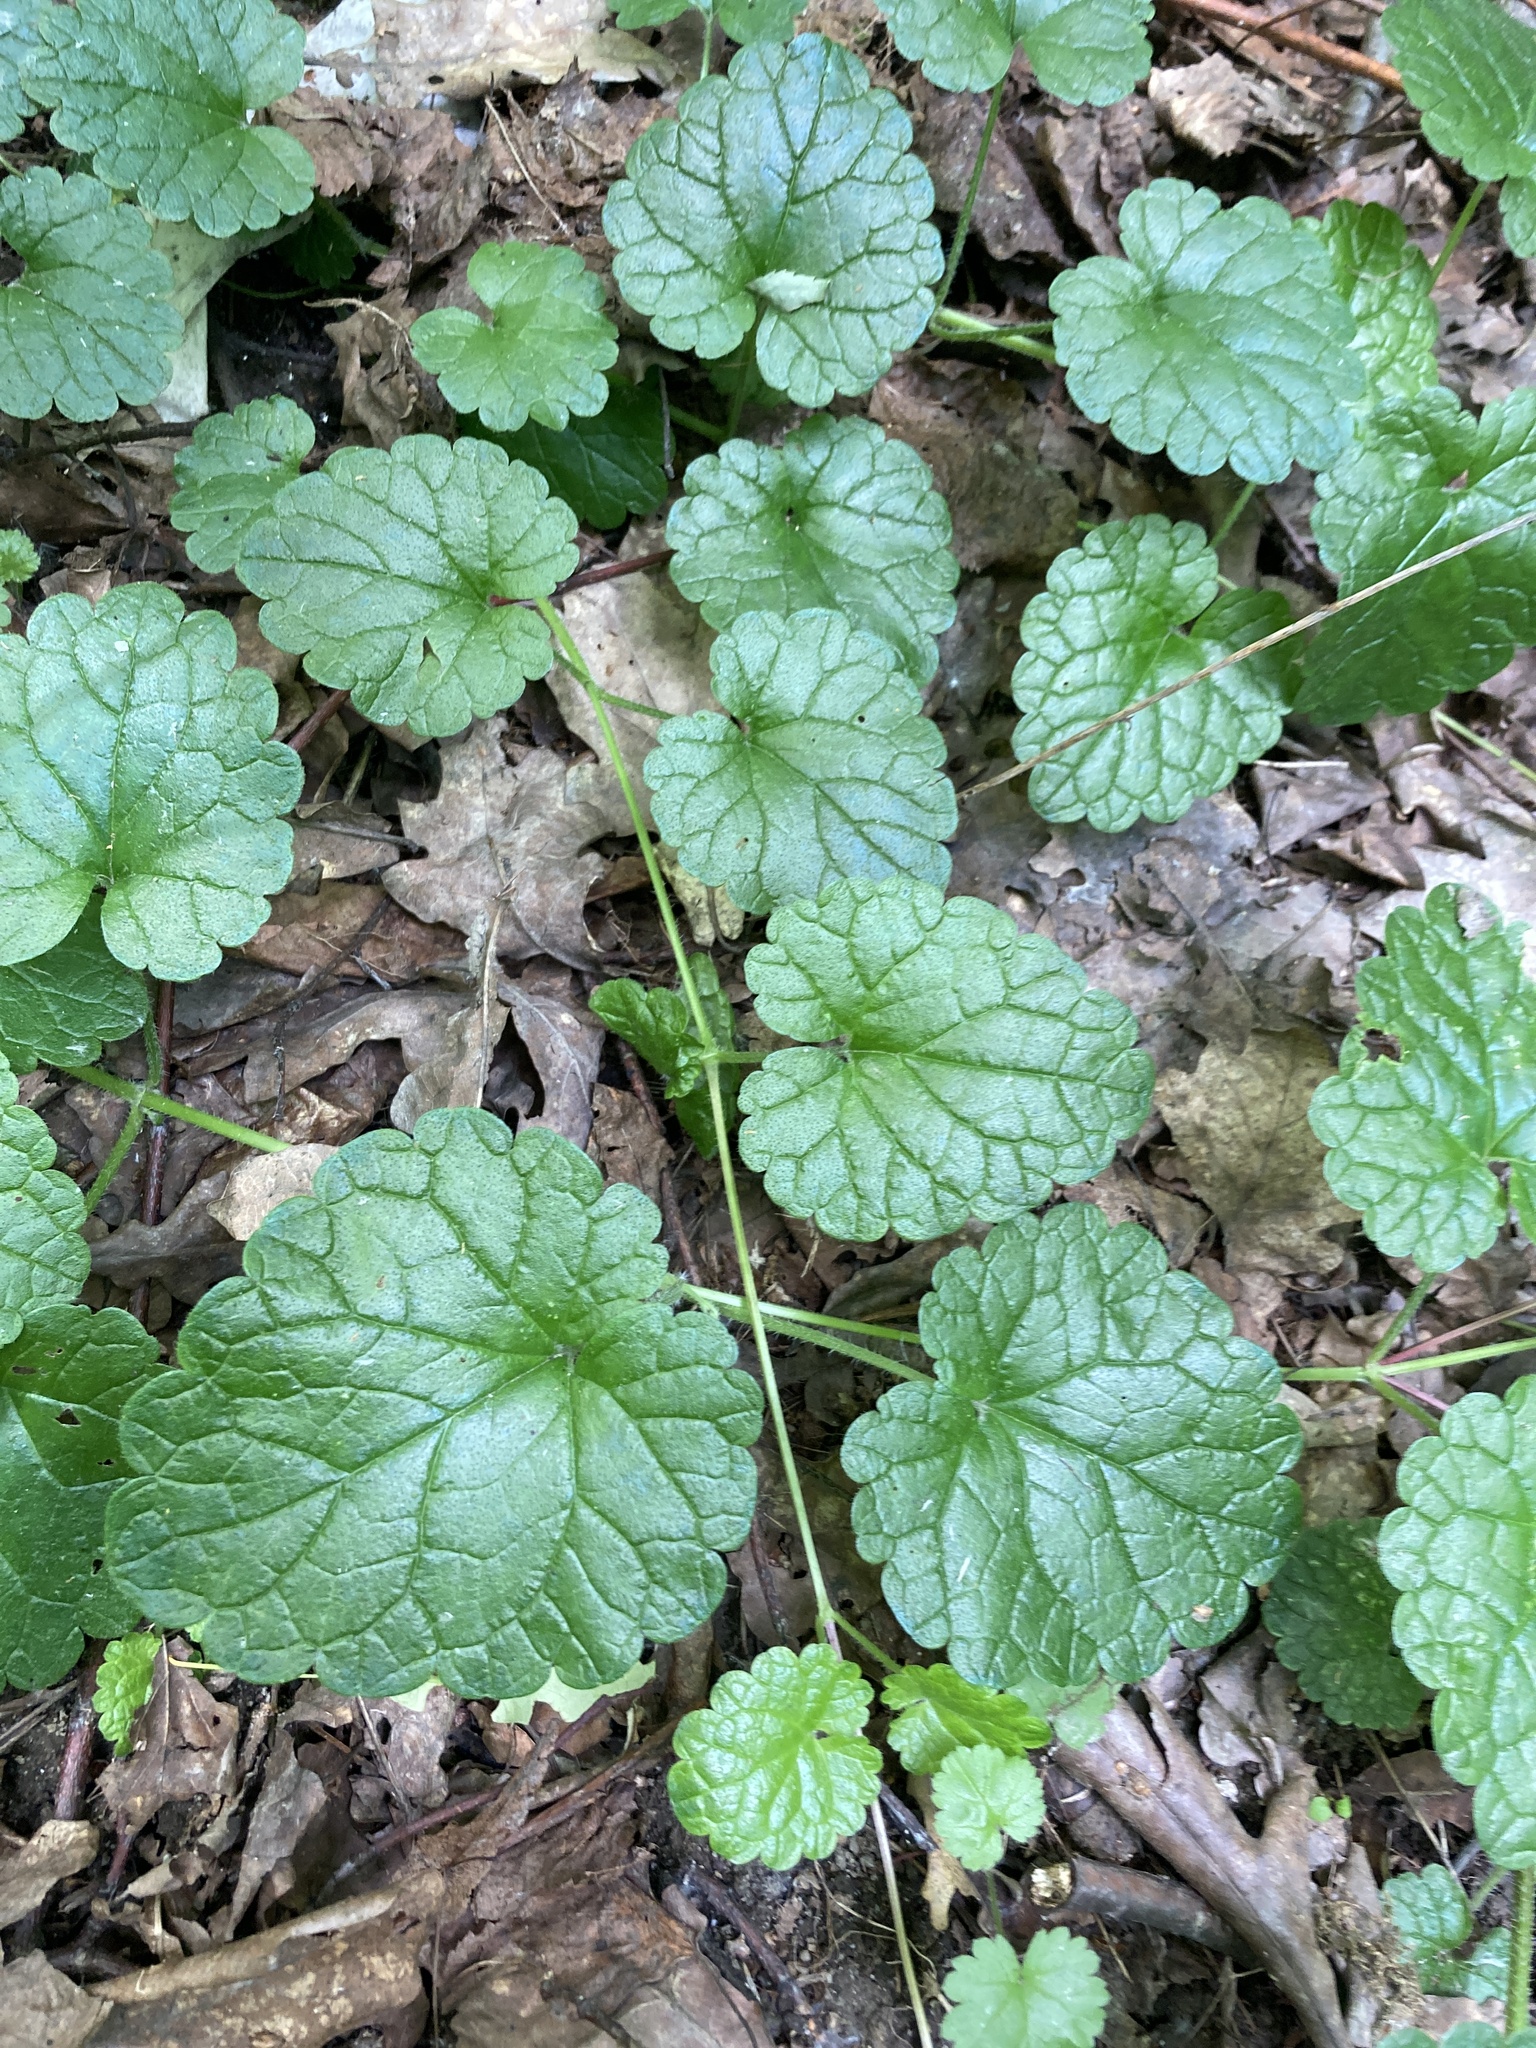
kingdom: Plantae
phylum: Tracheophyta
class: Magnoliopsida
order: Lamiales
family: Lamiaceae
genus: Glechoma
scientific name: Glechoma hederacea
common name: Ground ivy
